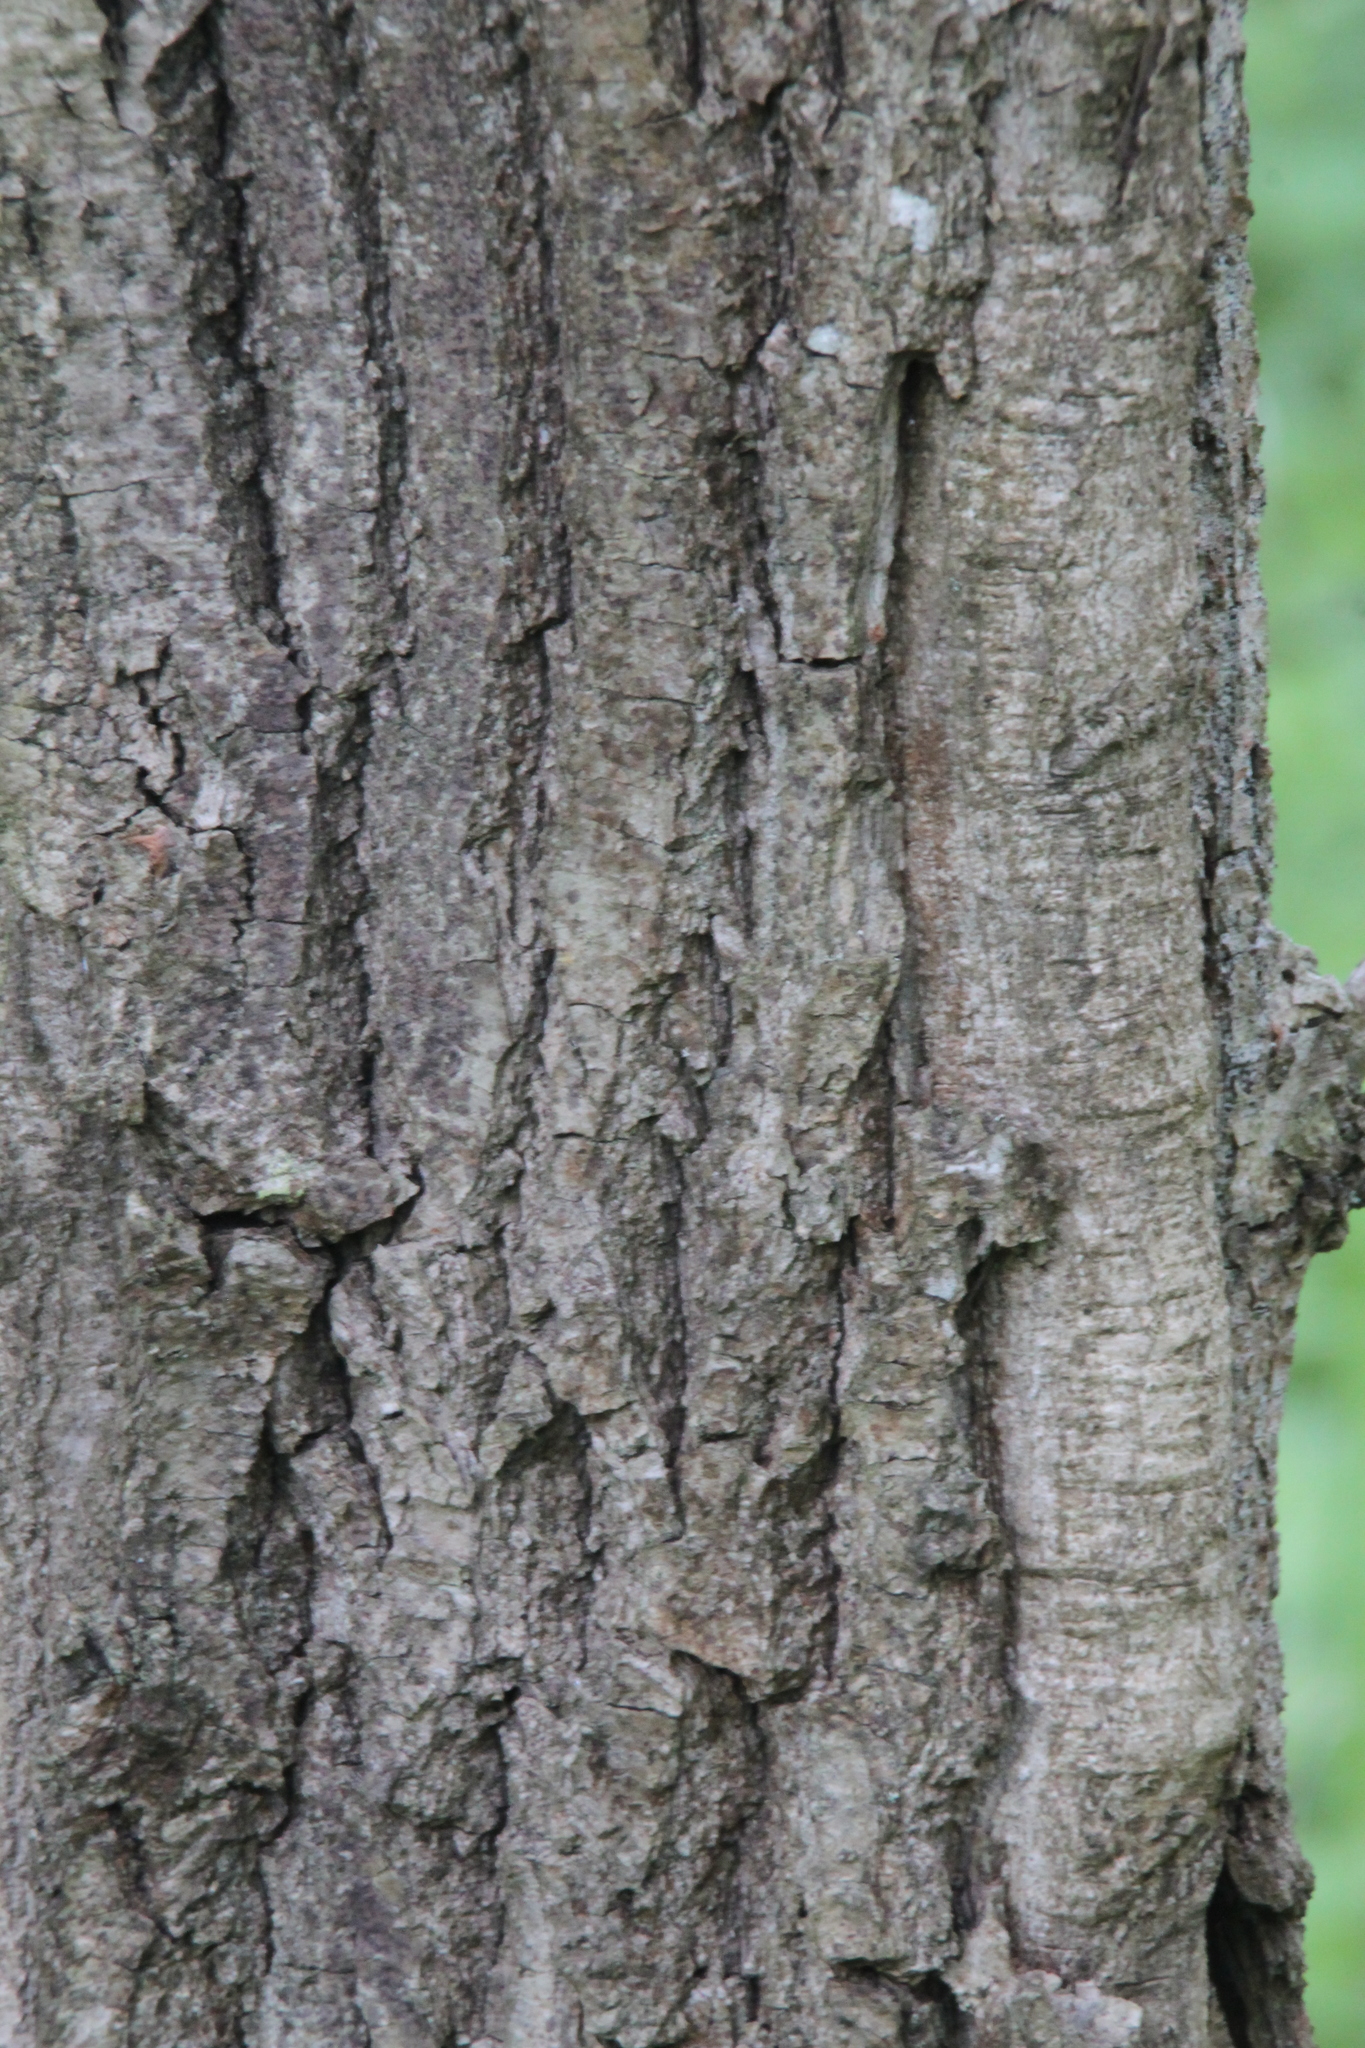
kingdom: Plantae
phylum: Tracheophyta
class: Magnoliopsida
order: Fagales
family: Fagaceae
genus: Quercus
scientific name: Quercus robur
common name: Pedunculate oak
